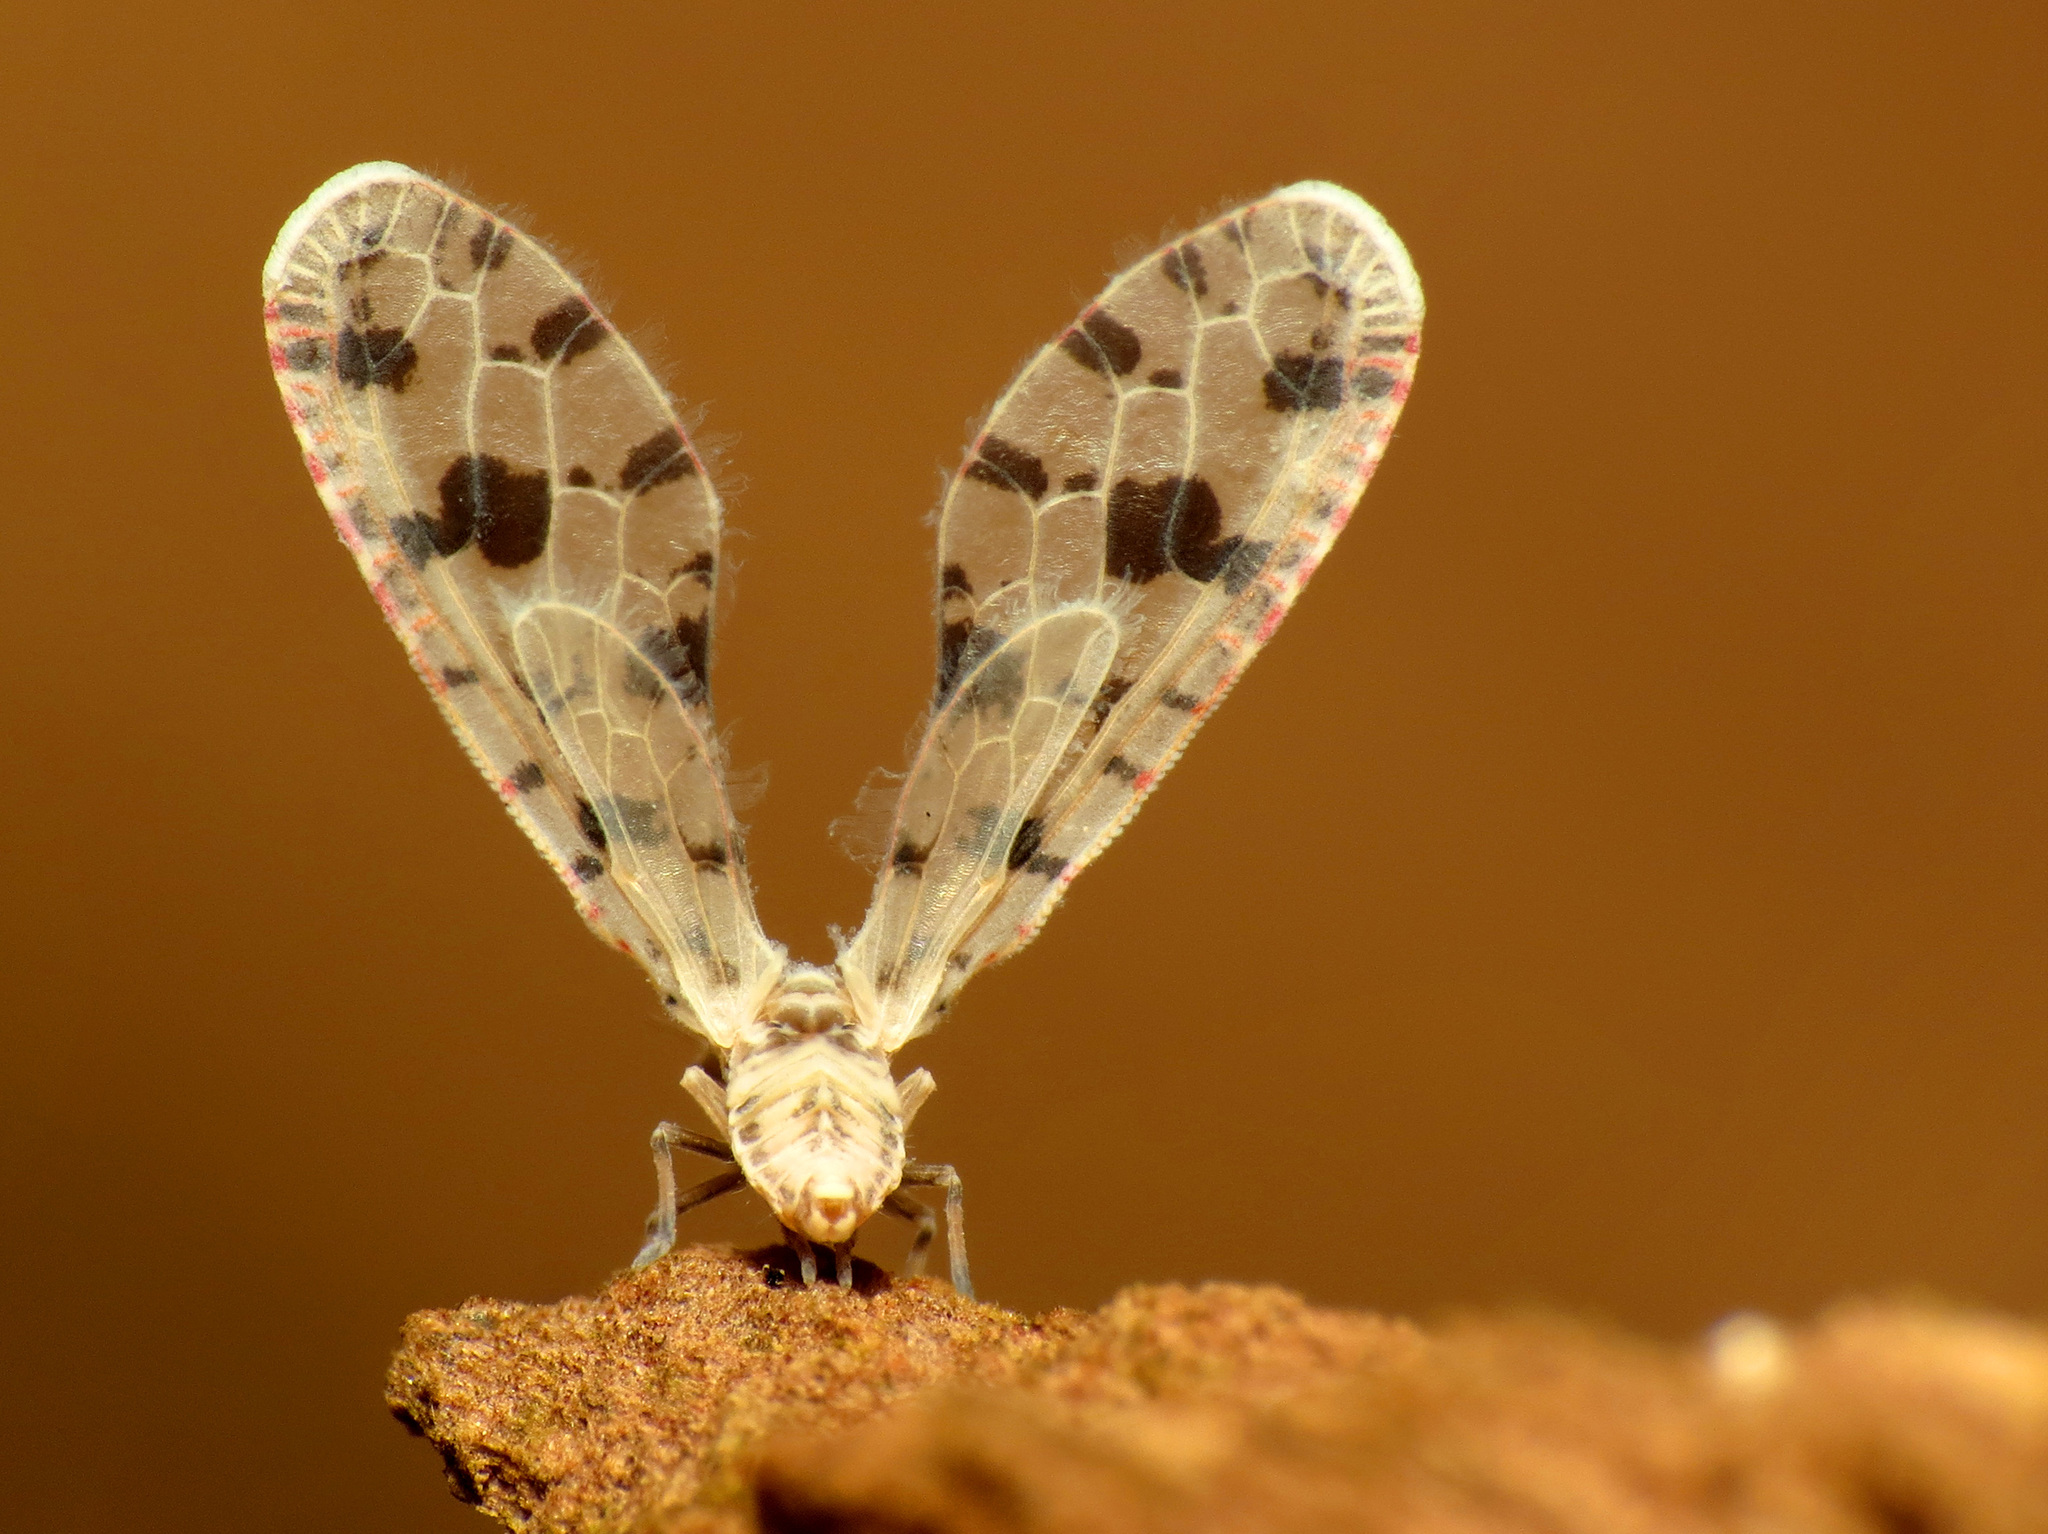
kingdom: Animalia
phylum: Arthropoda
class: Insecta
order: Hemiptera
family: Derbidae
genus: Sikaiana
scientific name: Sikaiana harti
